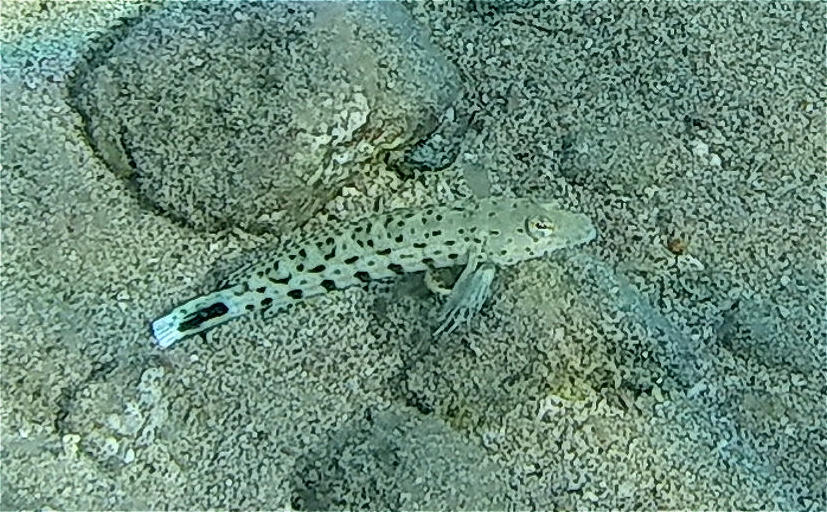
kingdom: Animalia
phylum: Chordata
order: Perciformes
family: Pinguipedidae
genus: Parapercis
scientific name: Parapercis hexophtalma
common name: Speckled sandperch
